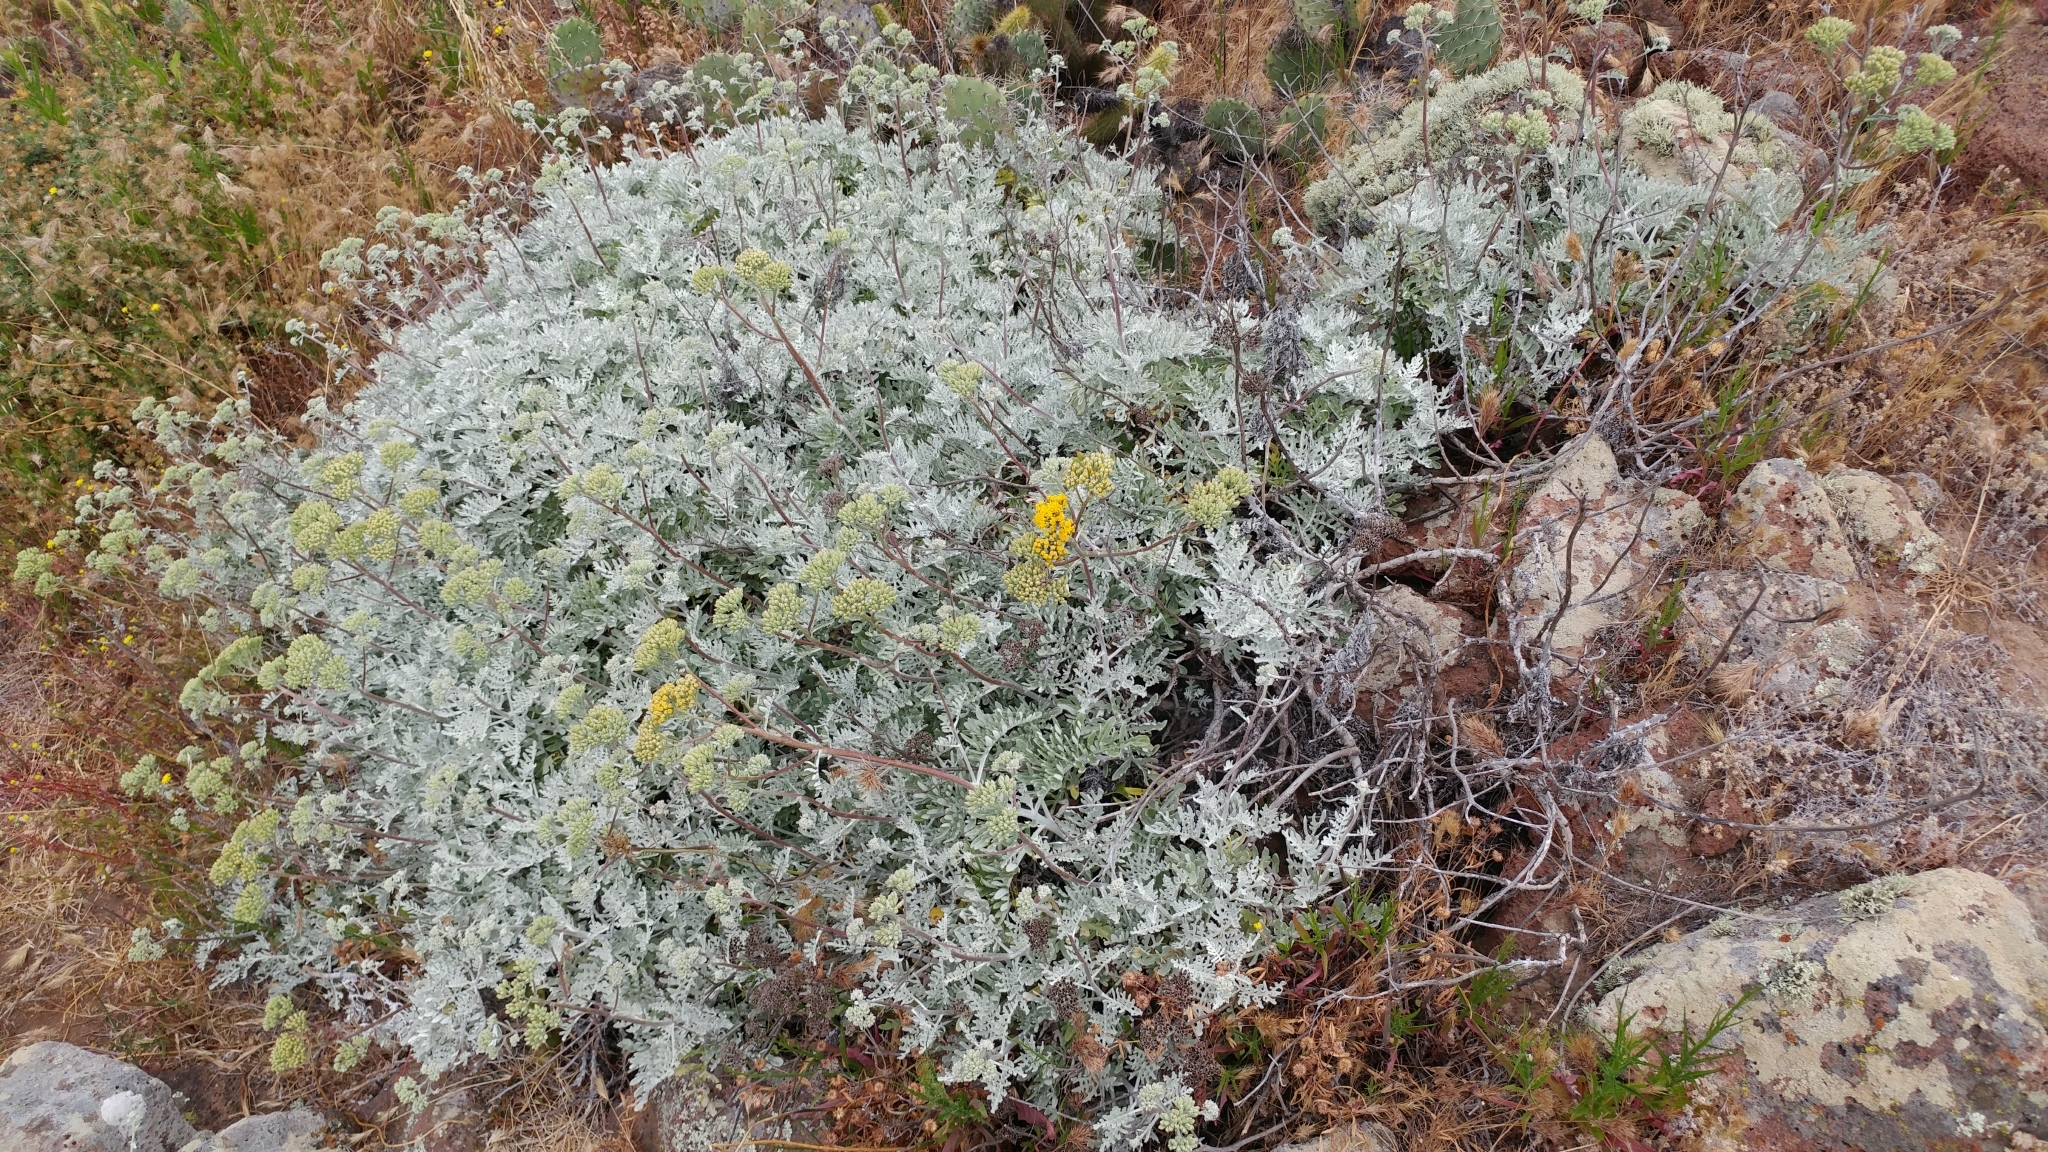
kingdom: Plantae
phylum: Tracheophyta
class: Magnoliopsida
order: Asterales
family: Asteraceae
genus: Constancea
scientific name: Constancea nevinii
